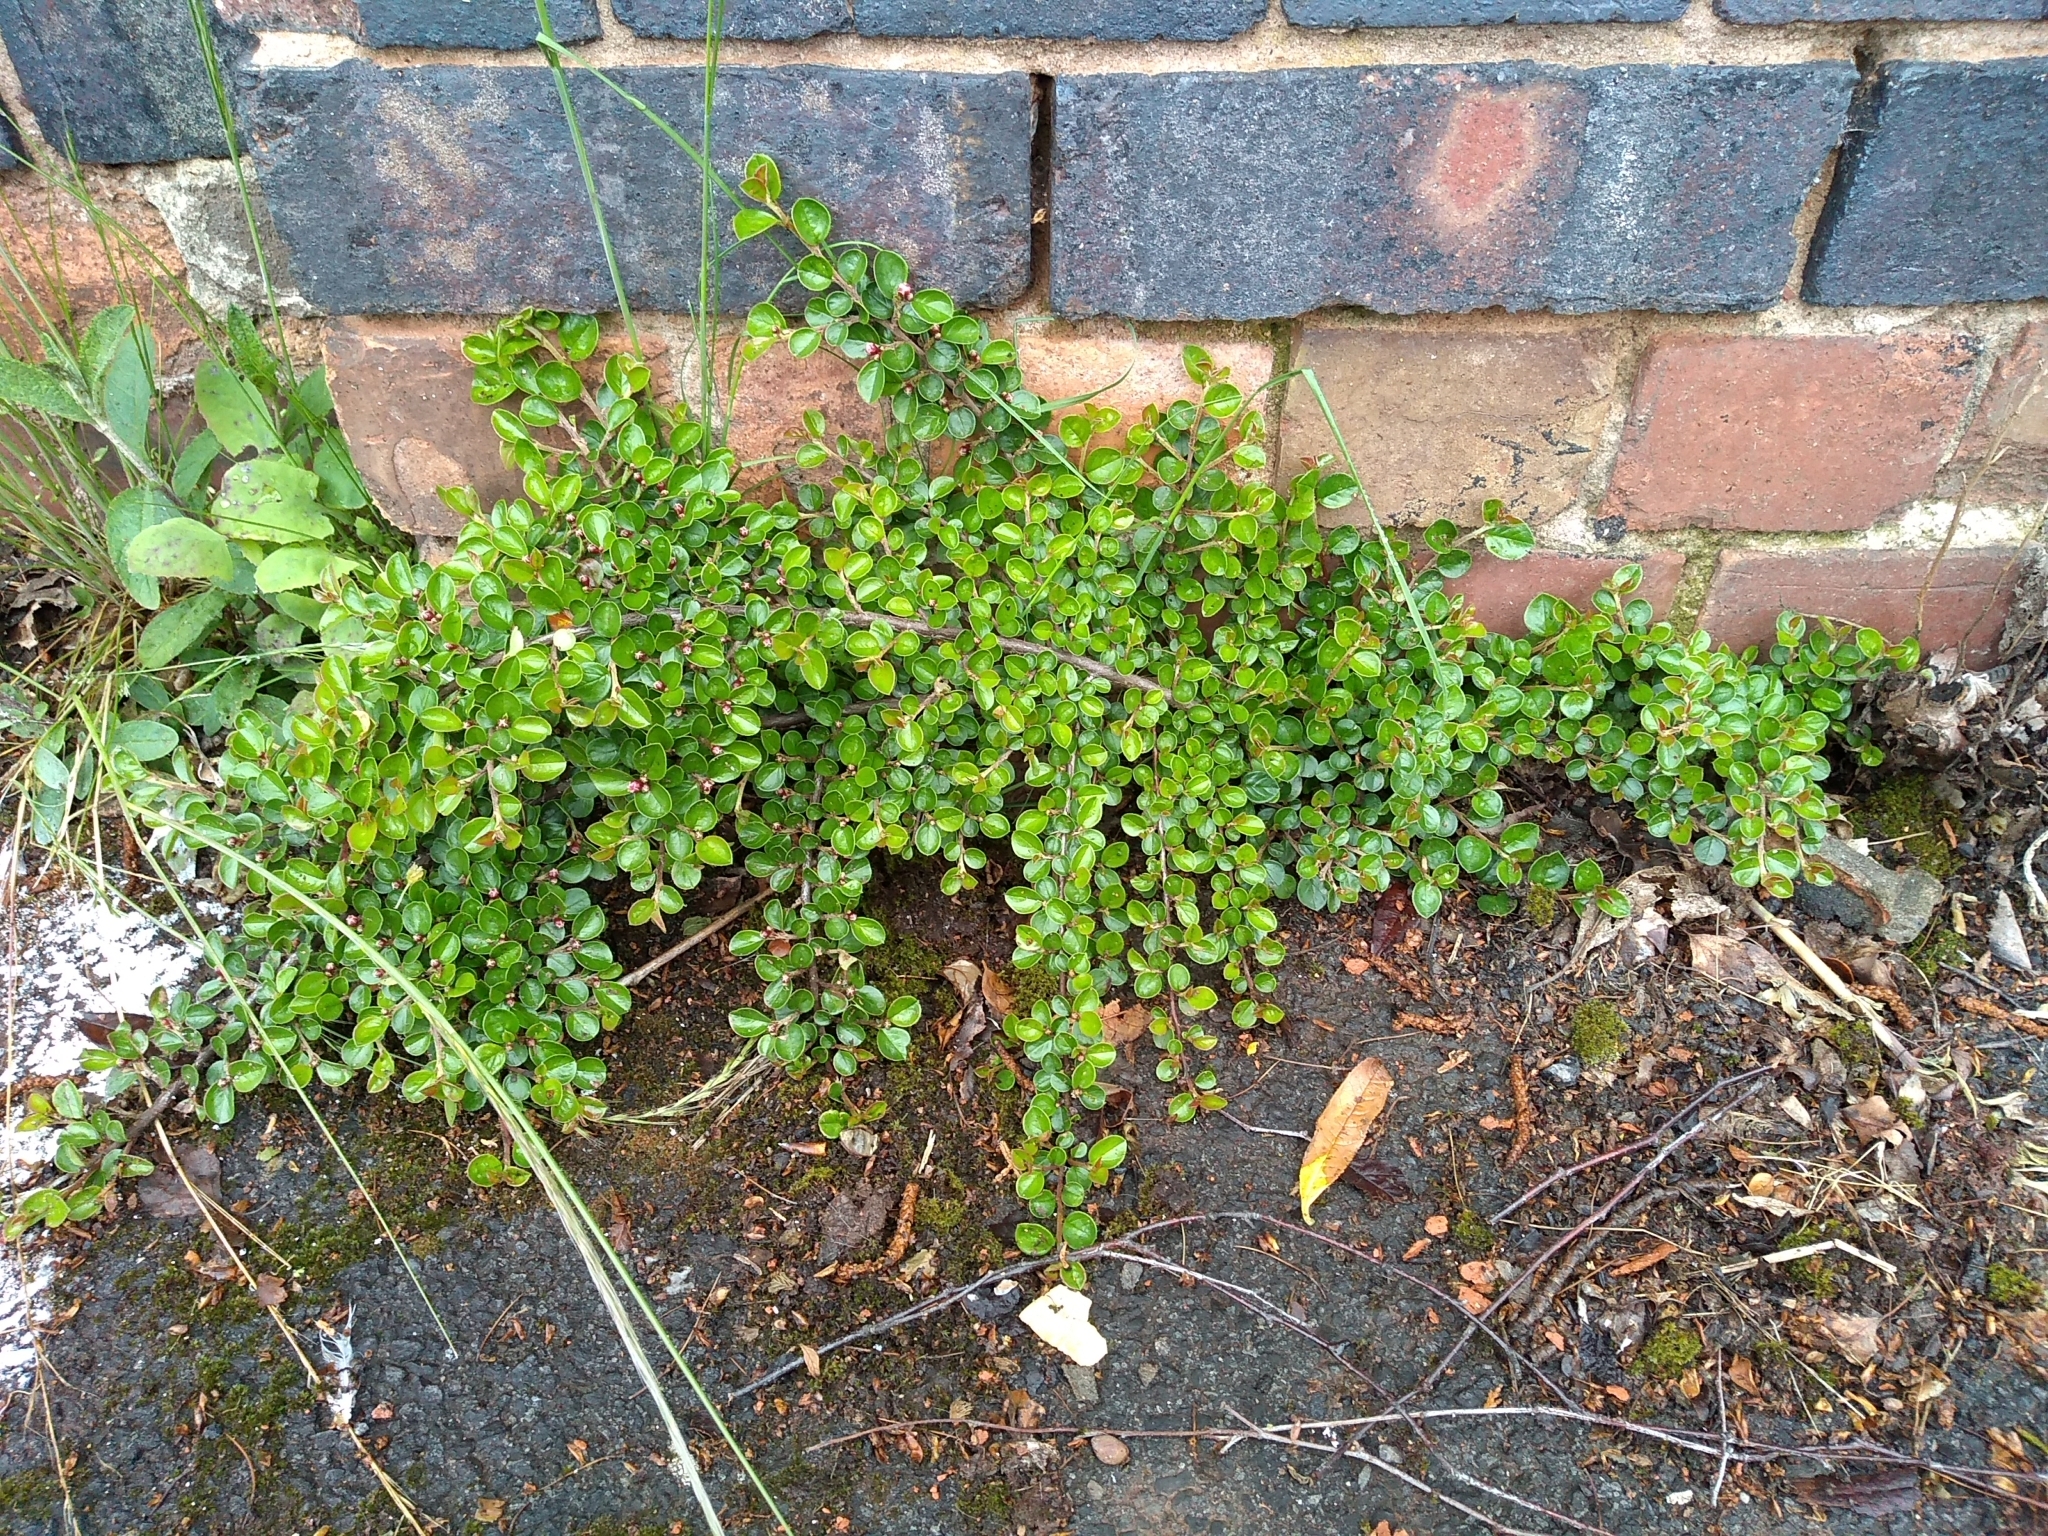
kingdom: Plantae
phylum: Tracheophyta
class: Magnoliopsida
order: Rosales
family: Rosaceae
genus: Cotoneaster
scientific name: Cotoneaster hjelmqvistii
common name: Hjelmqvist's cotoneaster
